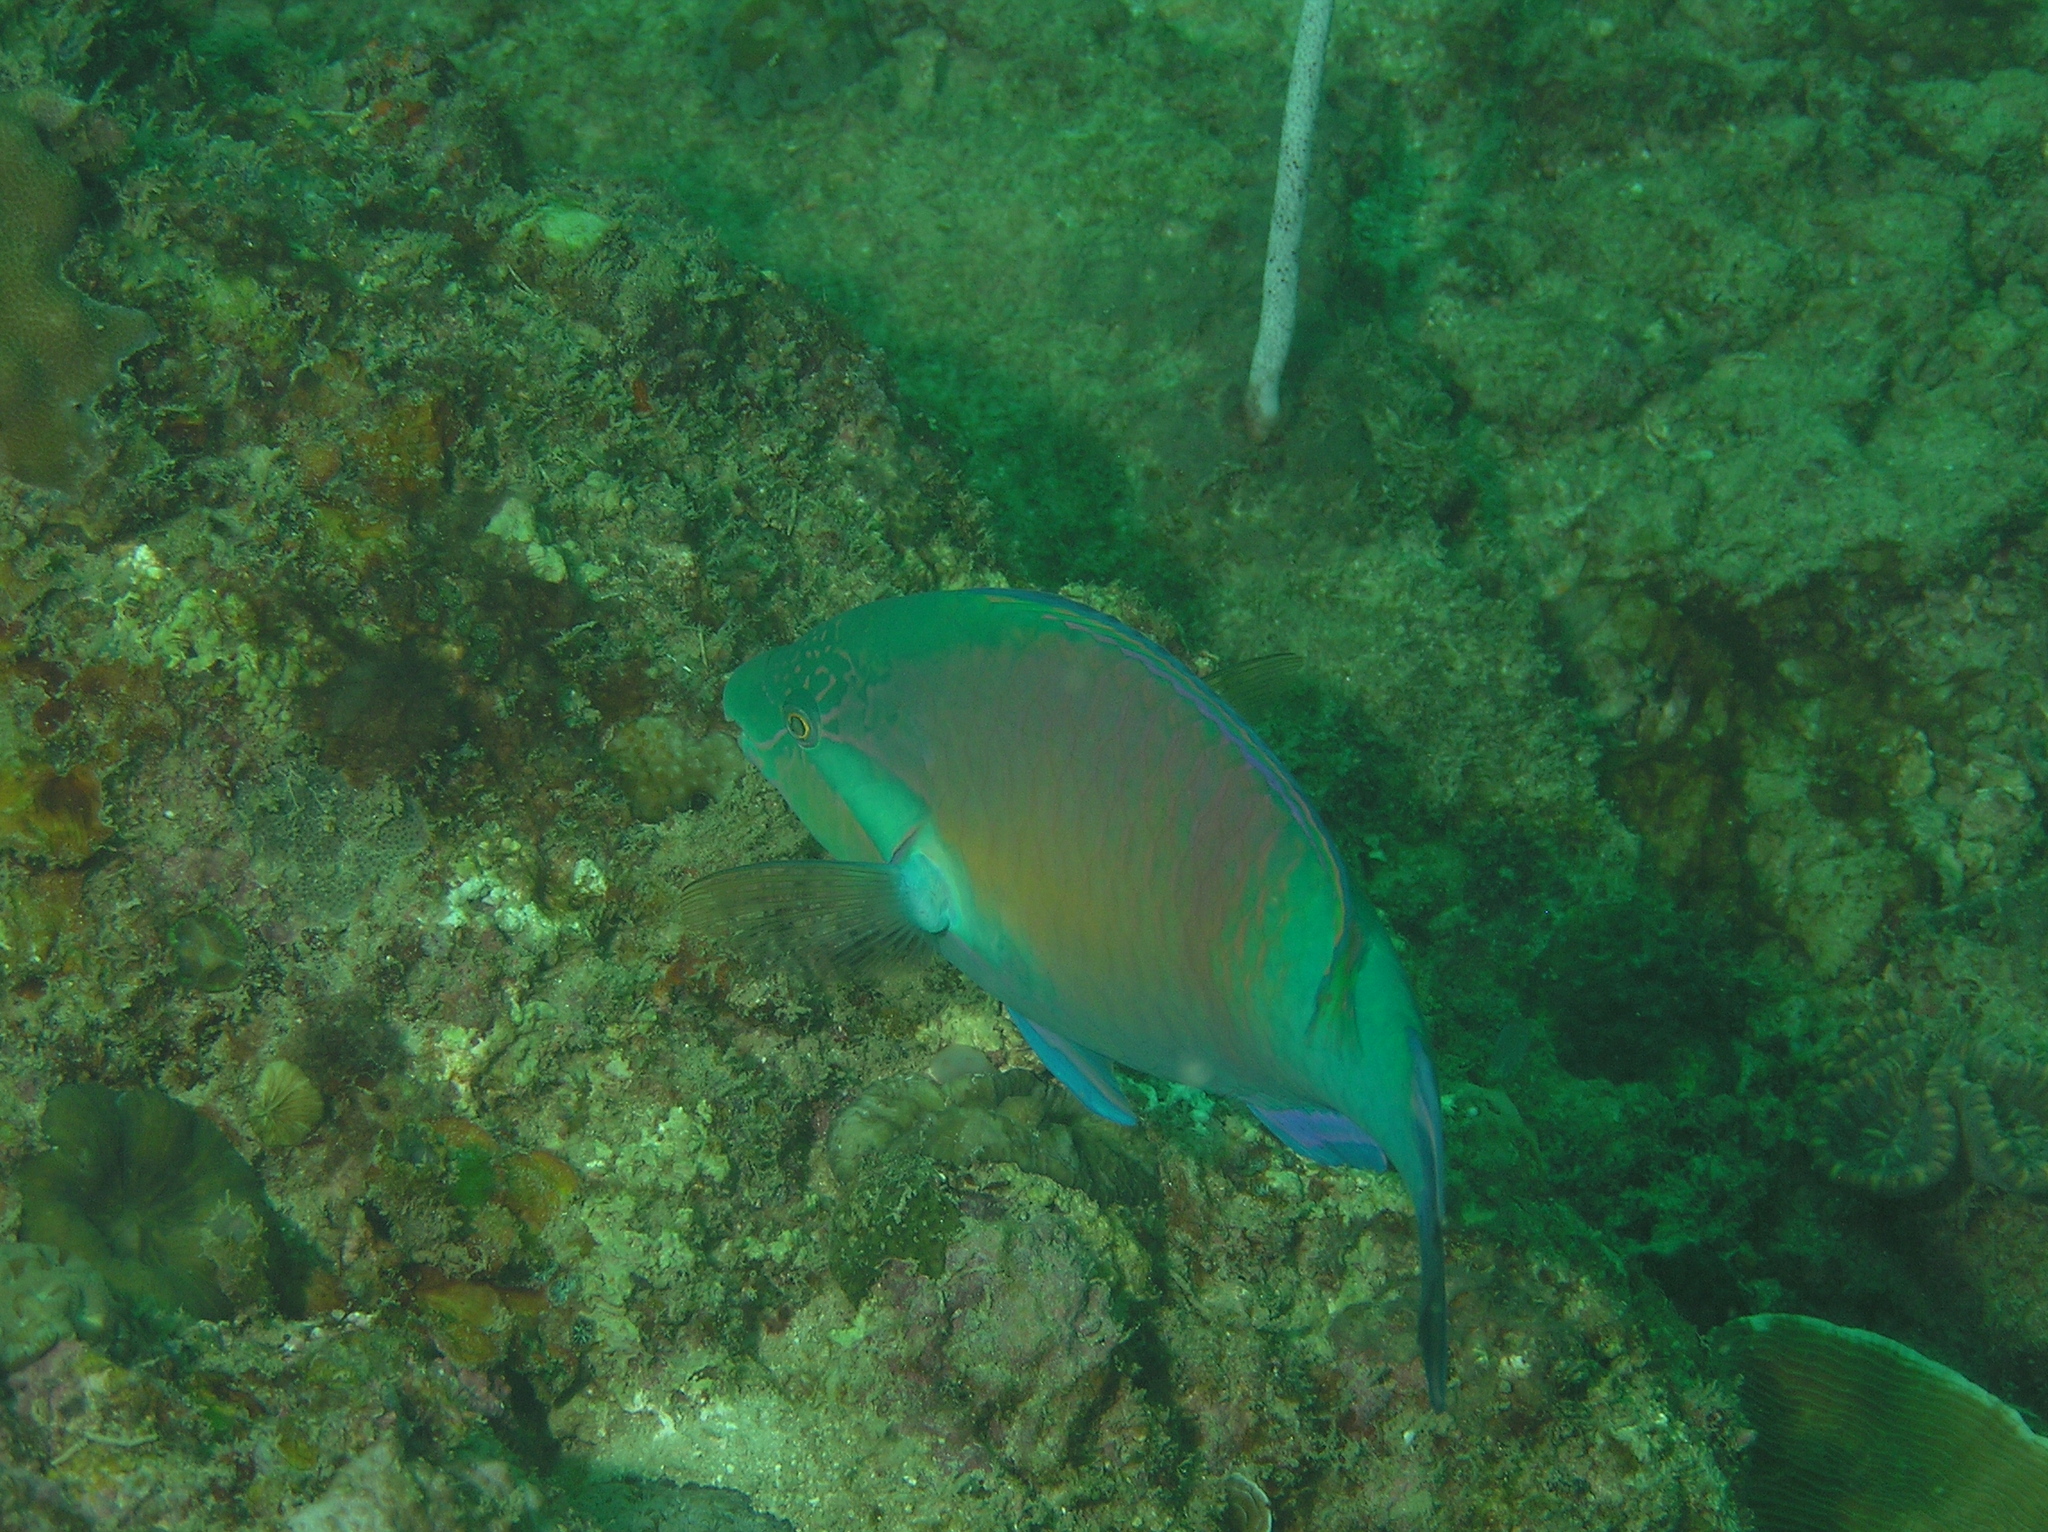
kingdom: Animalia
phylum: Chordata
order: Perciformes
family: Scaridae
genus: Scarus
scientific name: Scarus hypselopterus
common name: Java parrotfish
